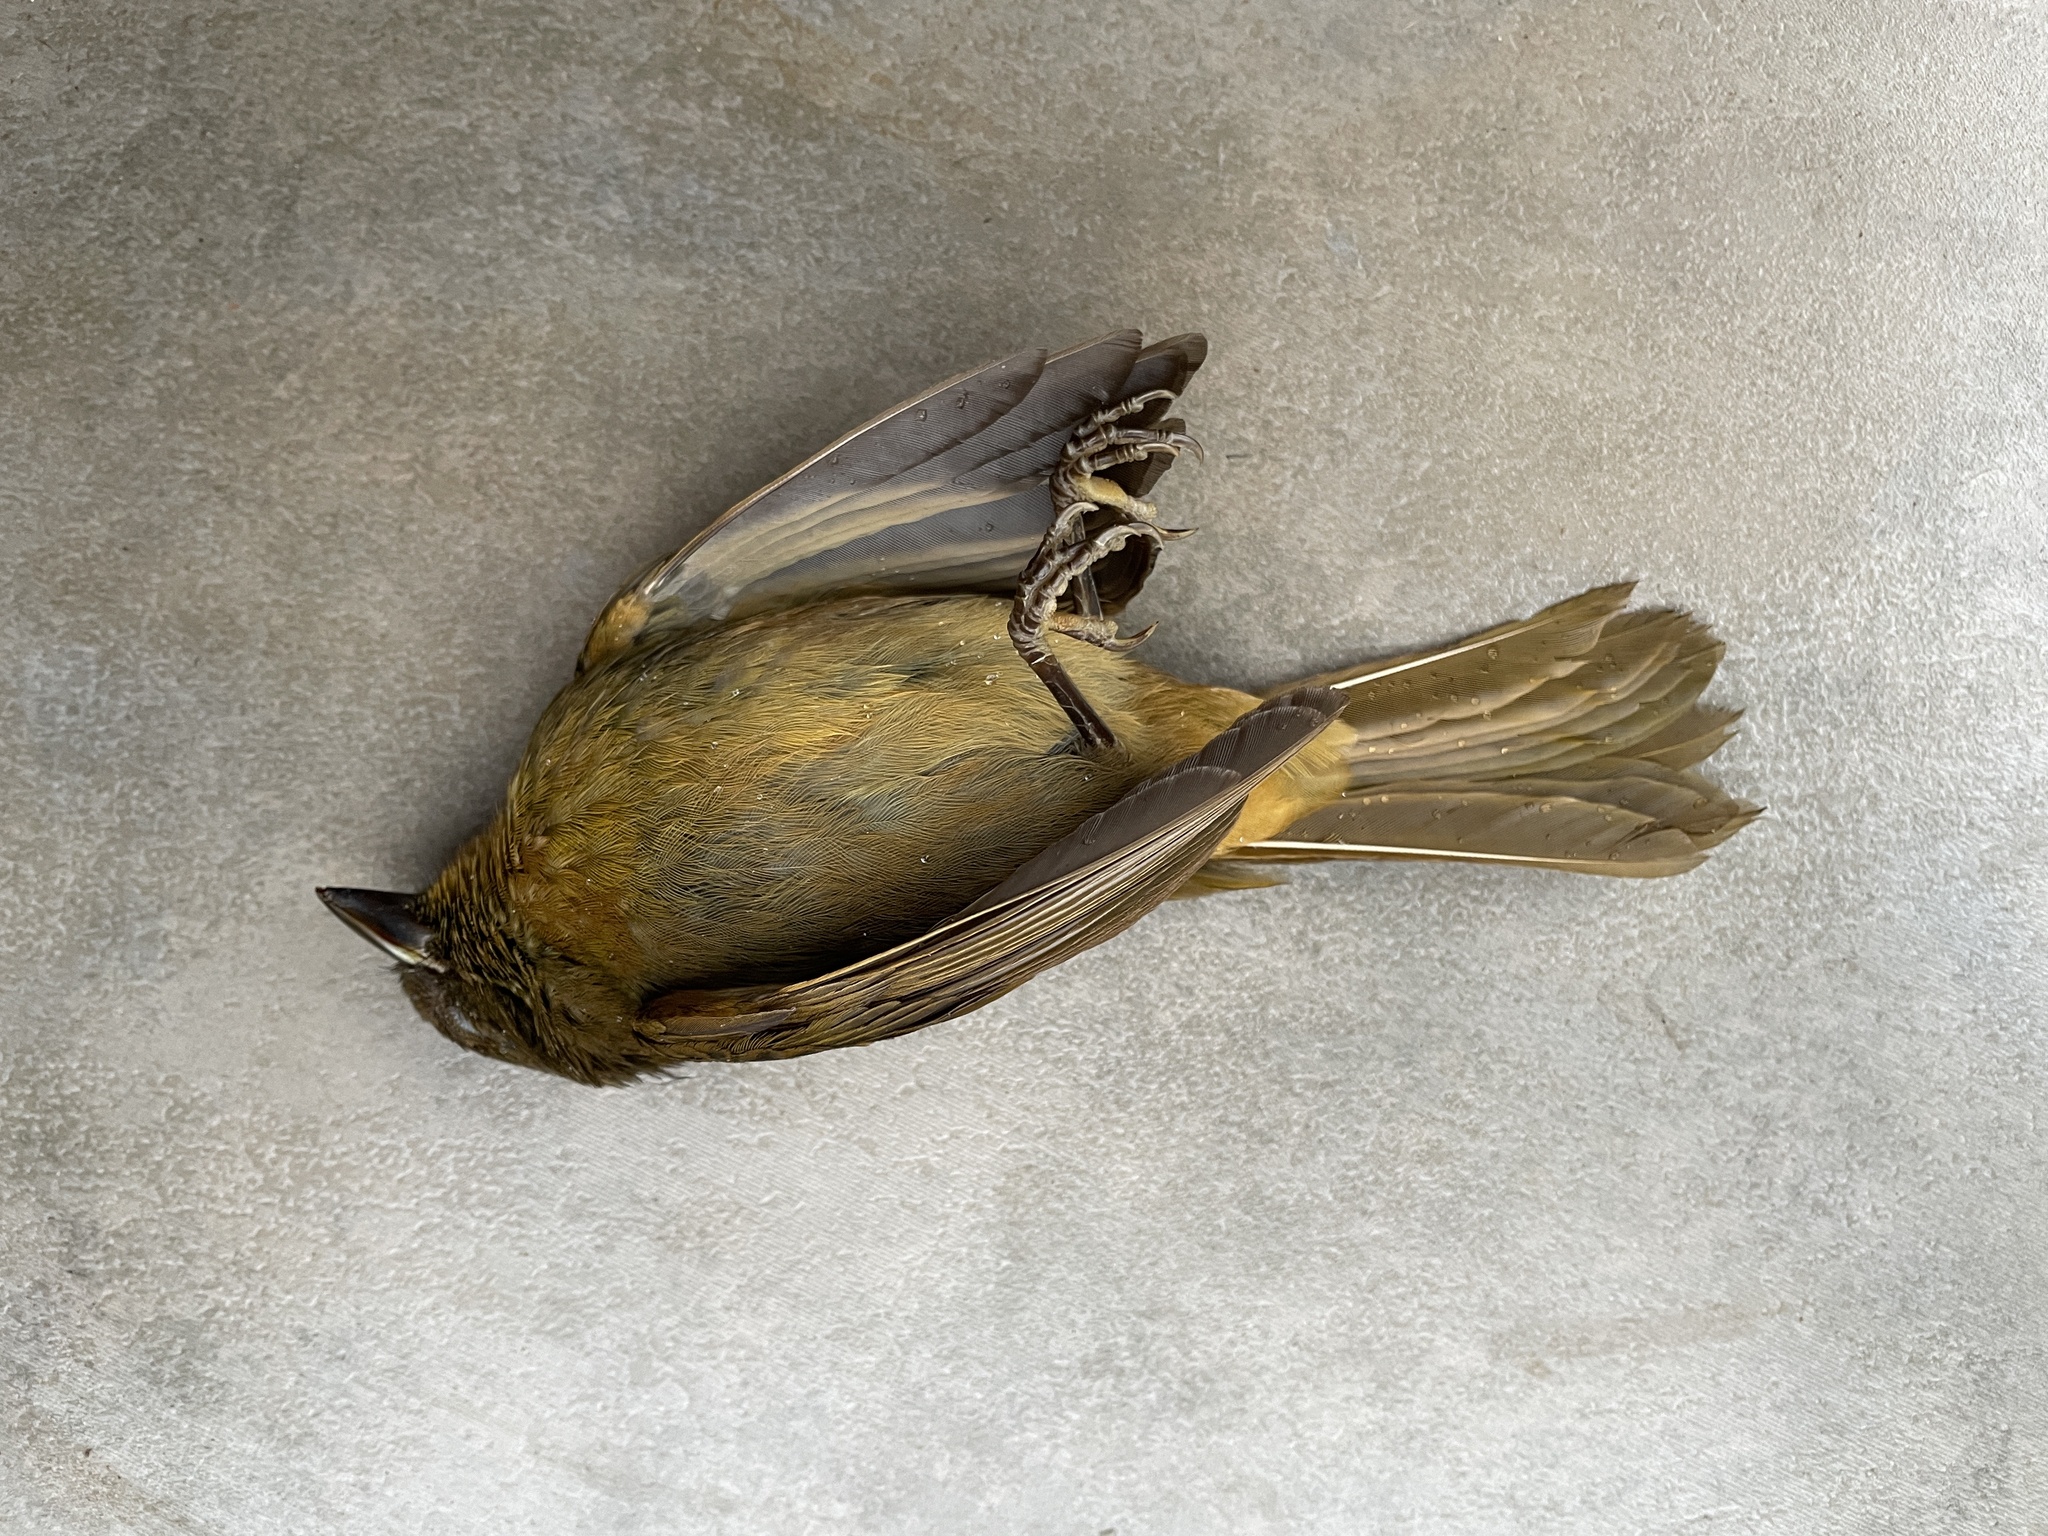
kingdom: Animalia
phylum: Chordata
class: Aves
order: Passeriformes
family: Cardinalidae
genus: Habia
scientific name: Habia rubica
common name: Red-crowned ant-tanager
